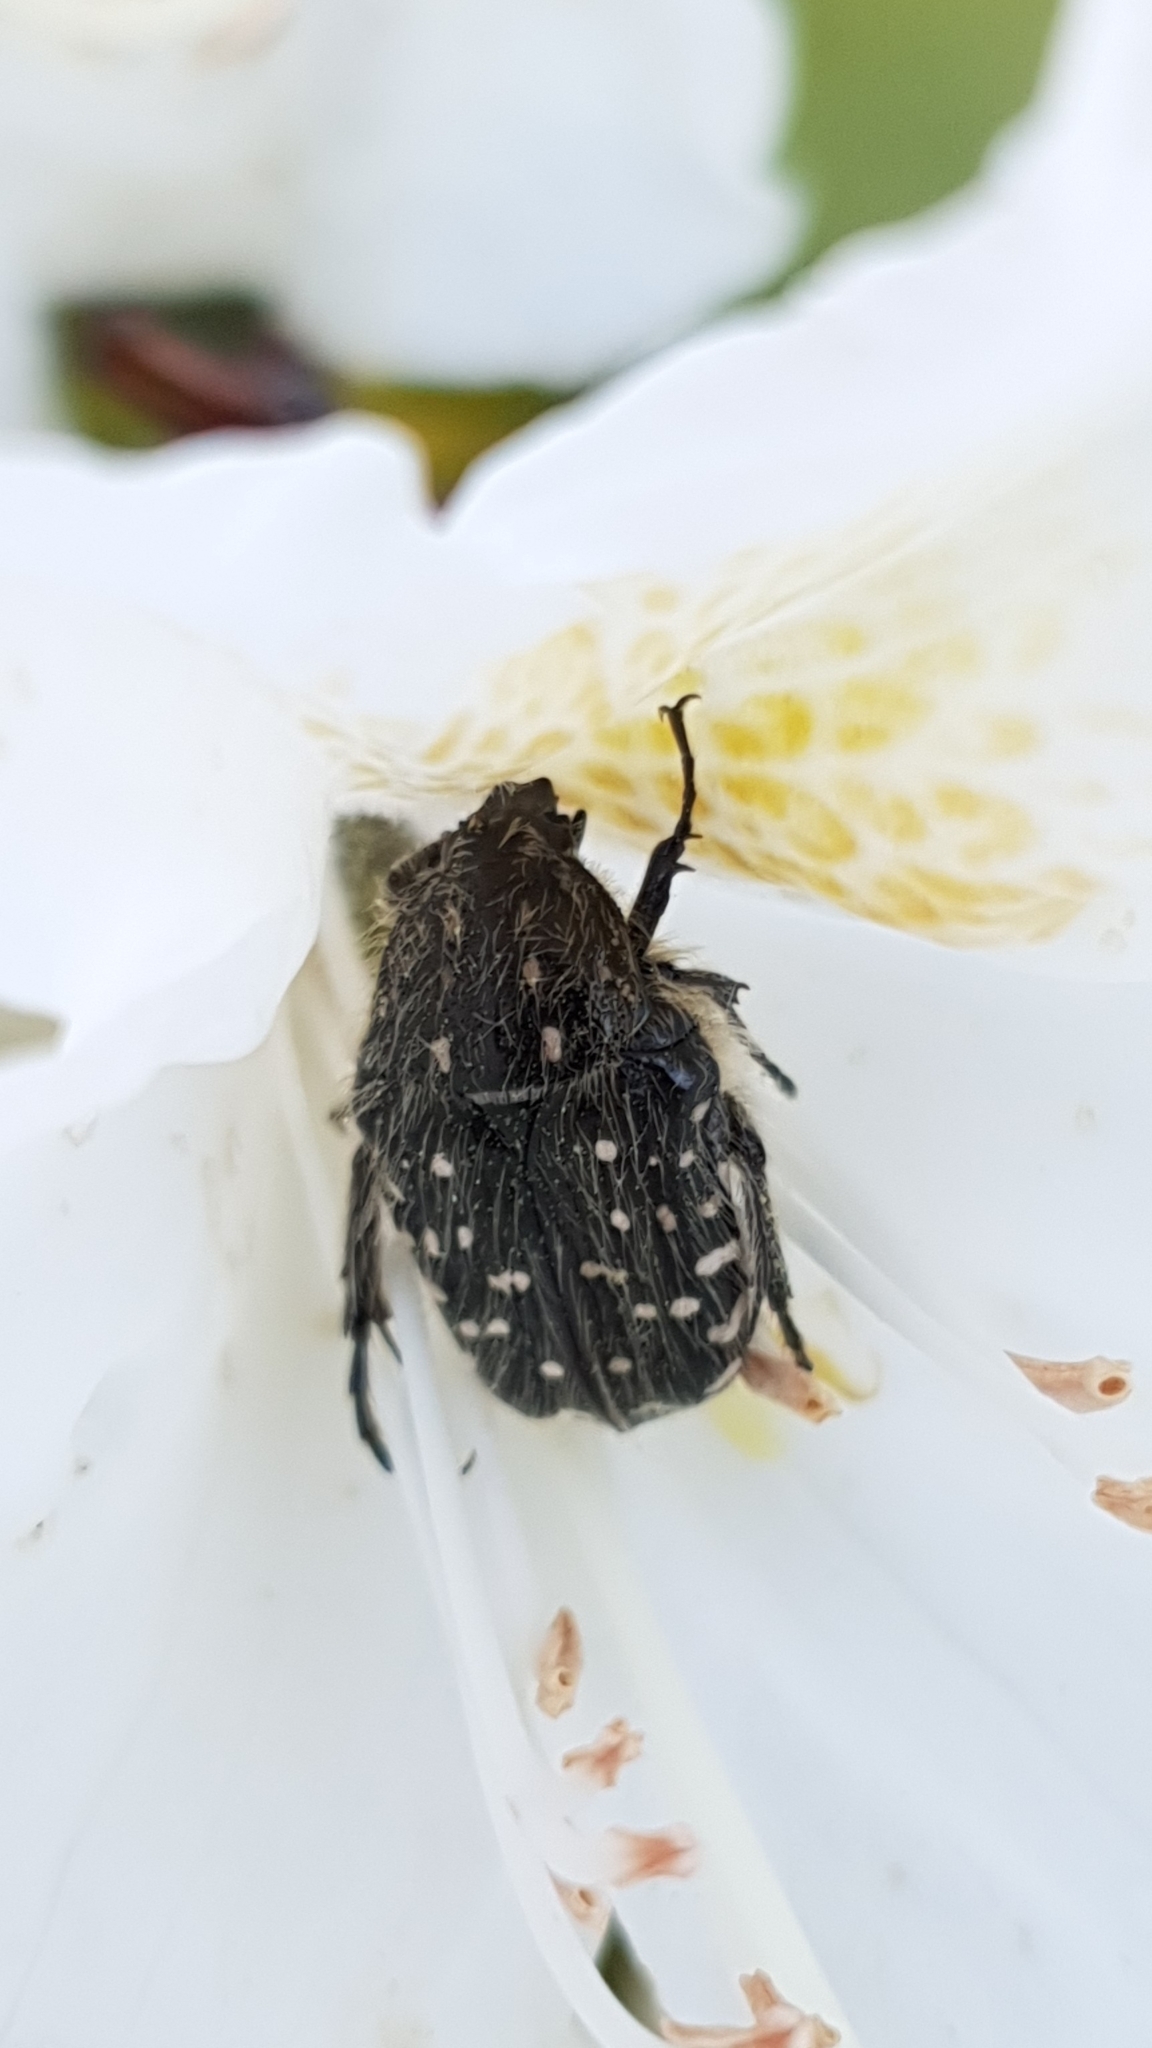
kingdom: Animalia
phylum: Arthropoda
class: Insecta
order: Coleoptera
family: Scarabaeidae
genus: Oxythyrea
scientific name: Oxythyrea funesta
